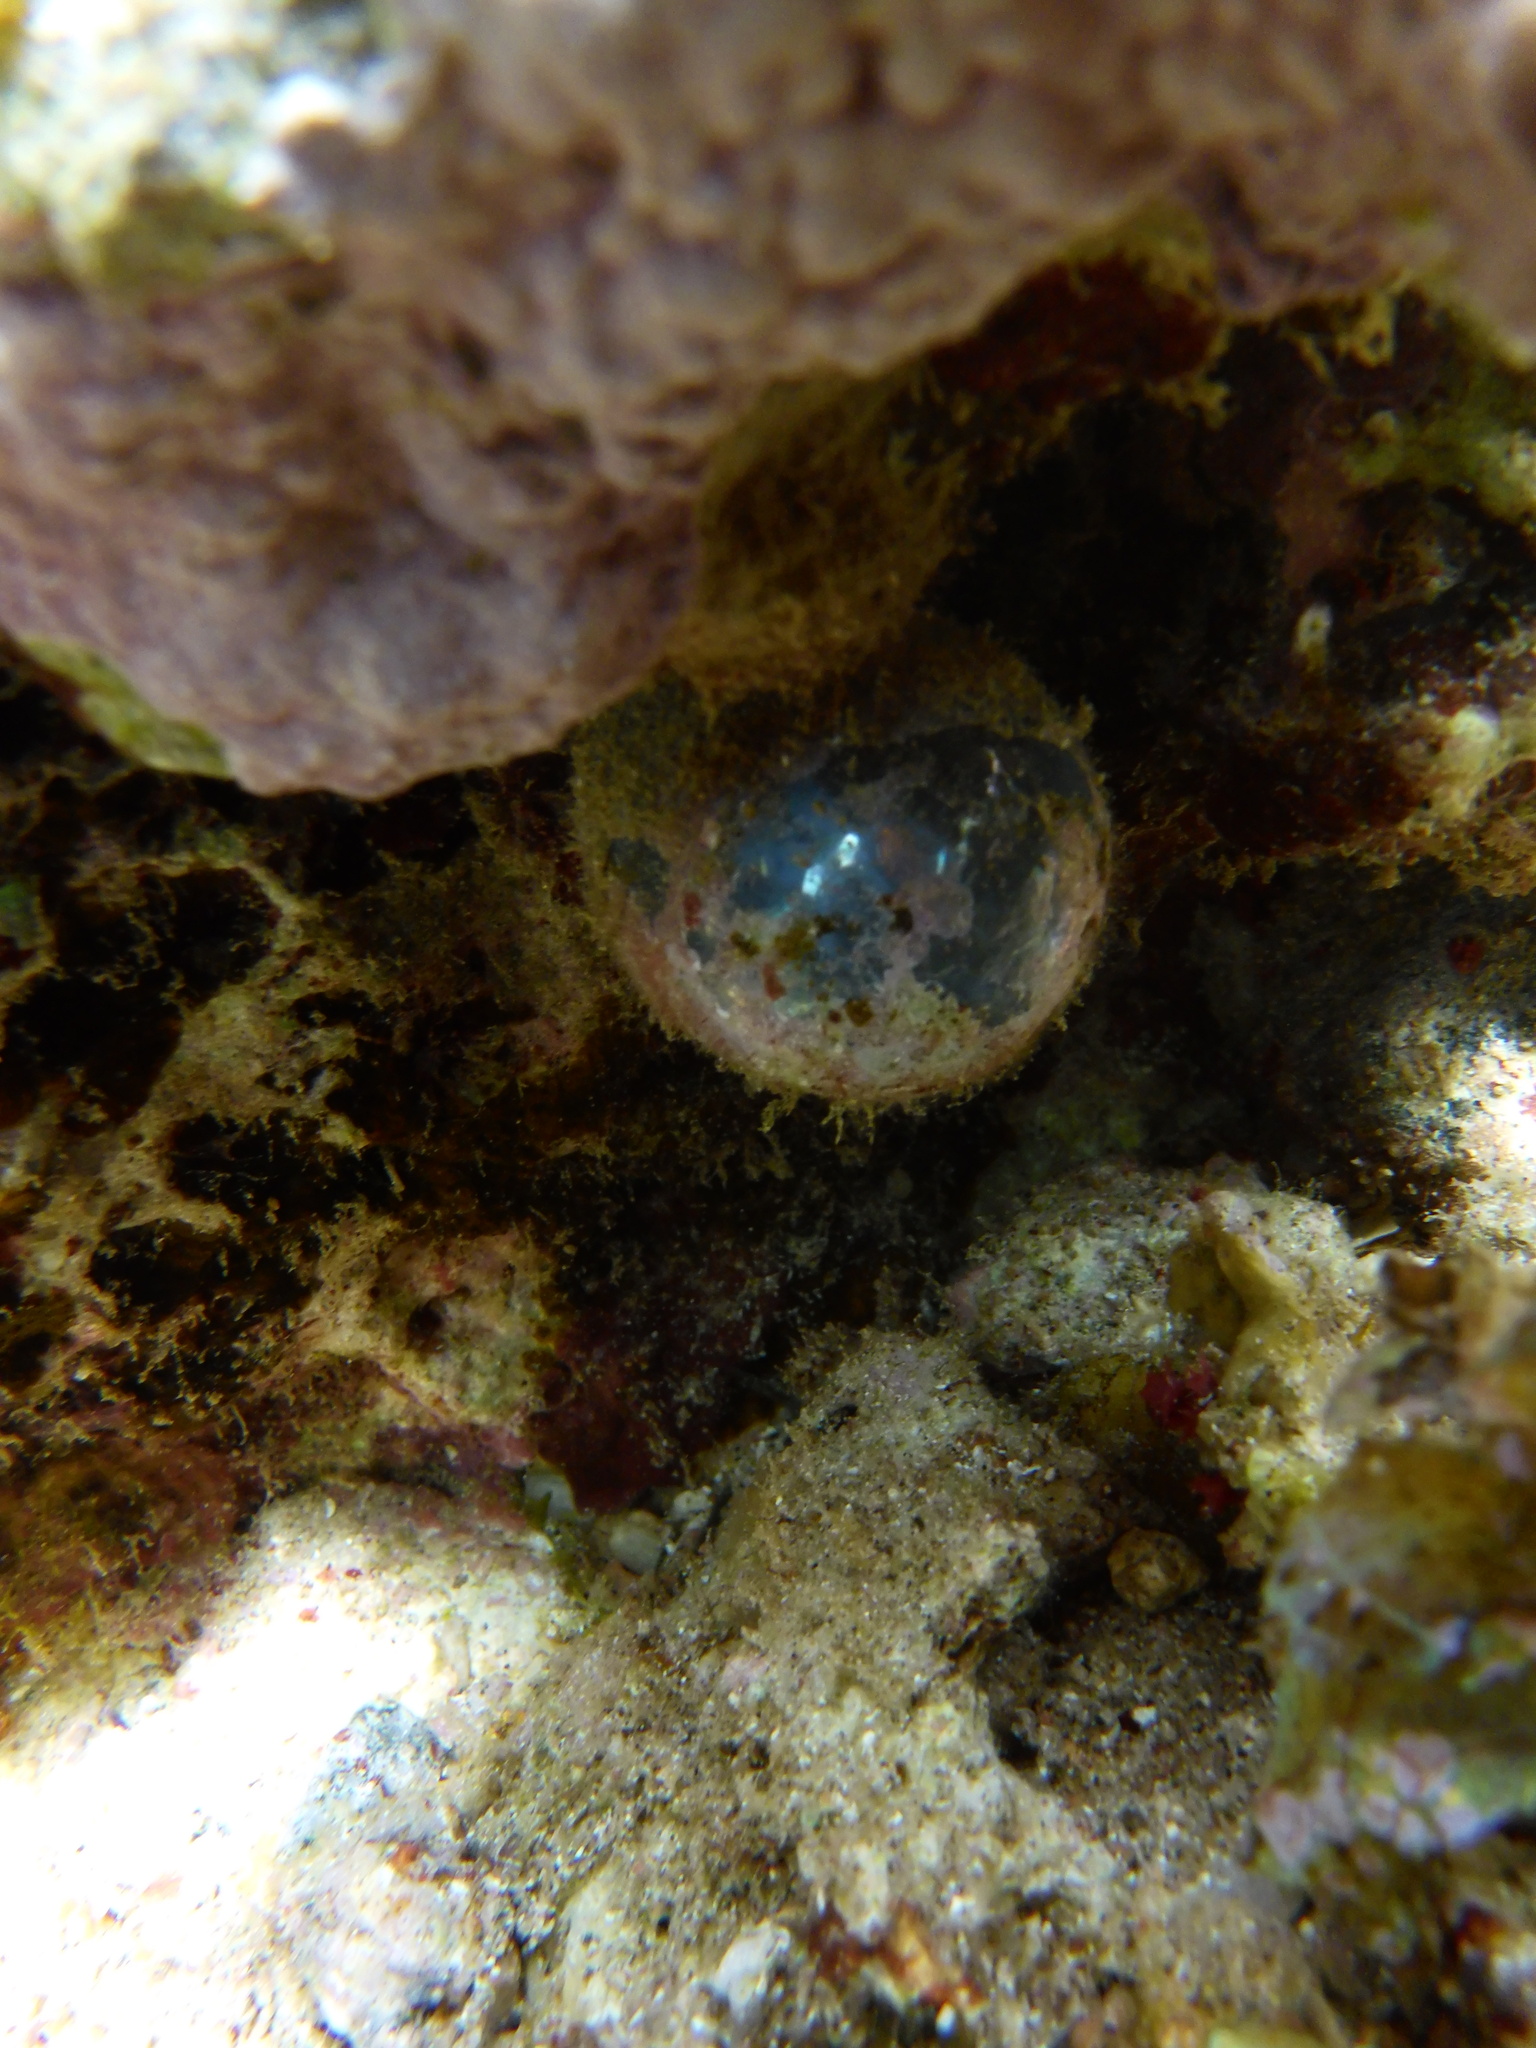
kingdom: Plantae
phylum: Chlorophyta
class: Ulvophyceae
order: Siphonocladales
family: Valoniaceae
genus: Valonia
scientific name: Valonia ventricosa
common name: Sea pearl
